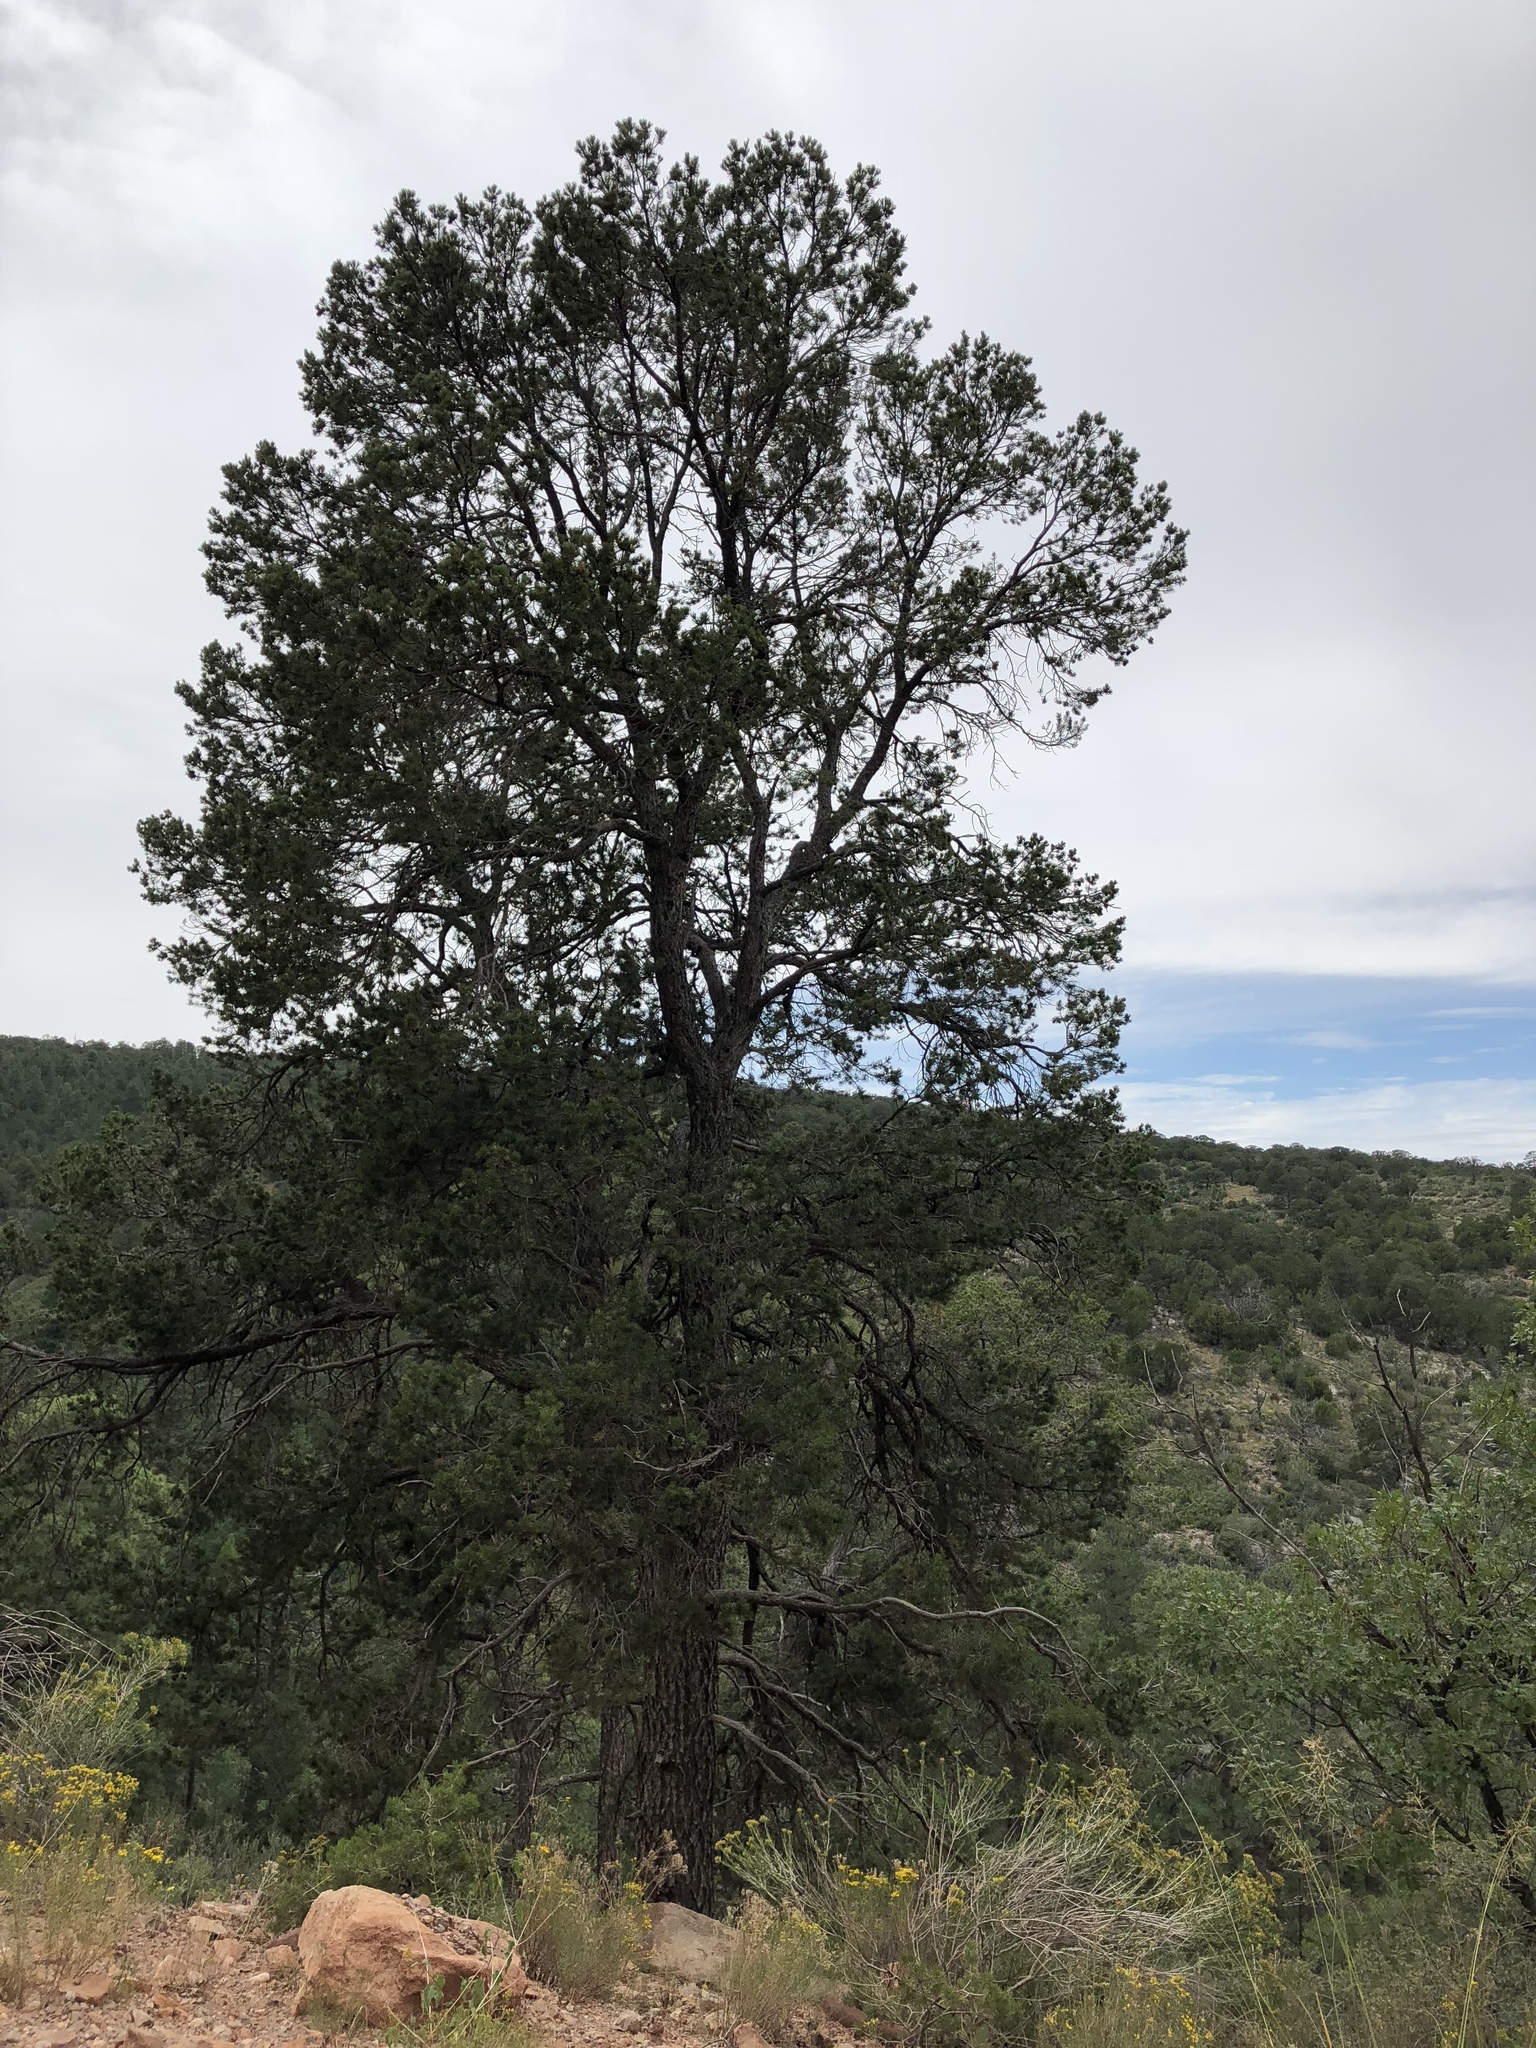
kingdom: Plantae
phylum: Tracheophyta
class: Pinopsida
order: Pinales
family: Pinaceae
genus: Pinus
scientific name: Pinus edulis
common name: Colorado pinyon
